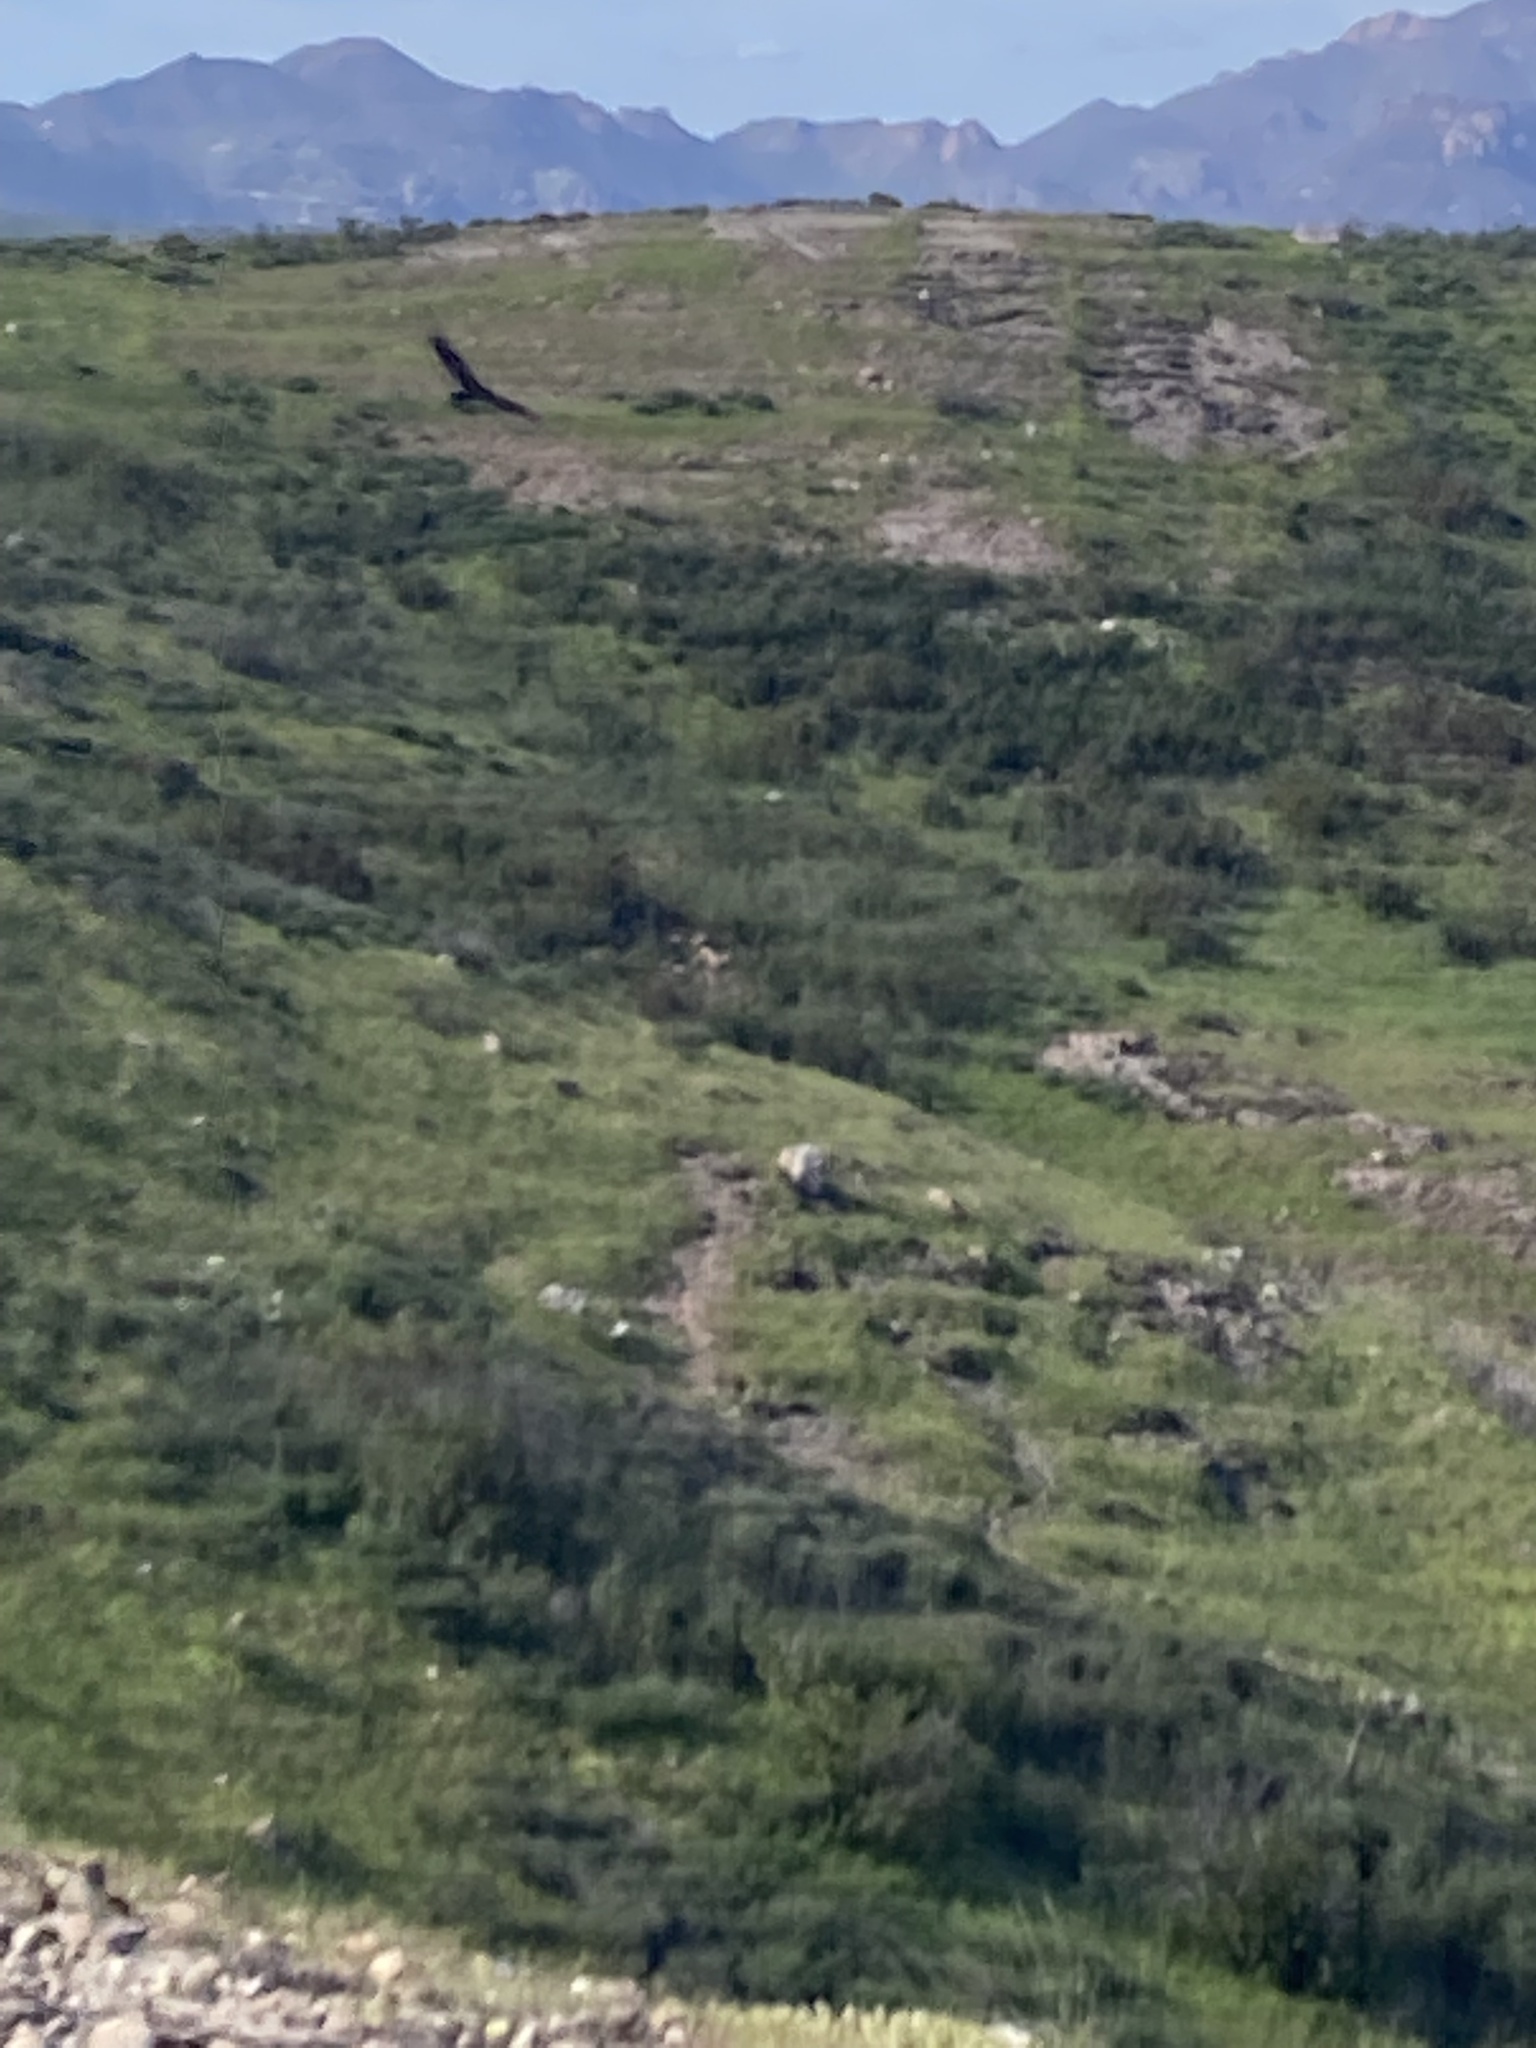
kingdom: Animalia
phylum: Chordata
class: Aves
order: Accipitriformes
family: Cathartidae
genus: Cathartes
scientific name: Cathartes aura
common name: Turkey vulture
